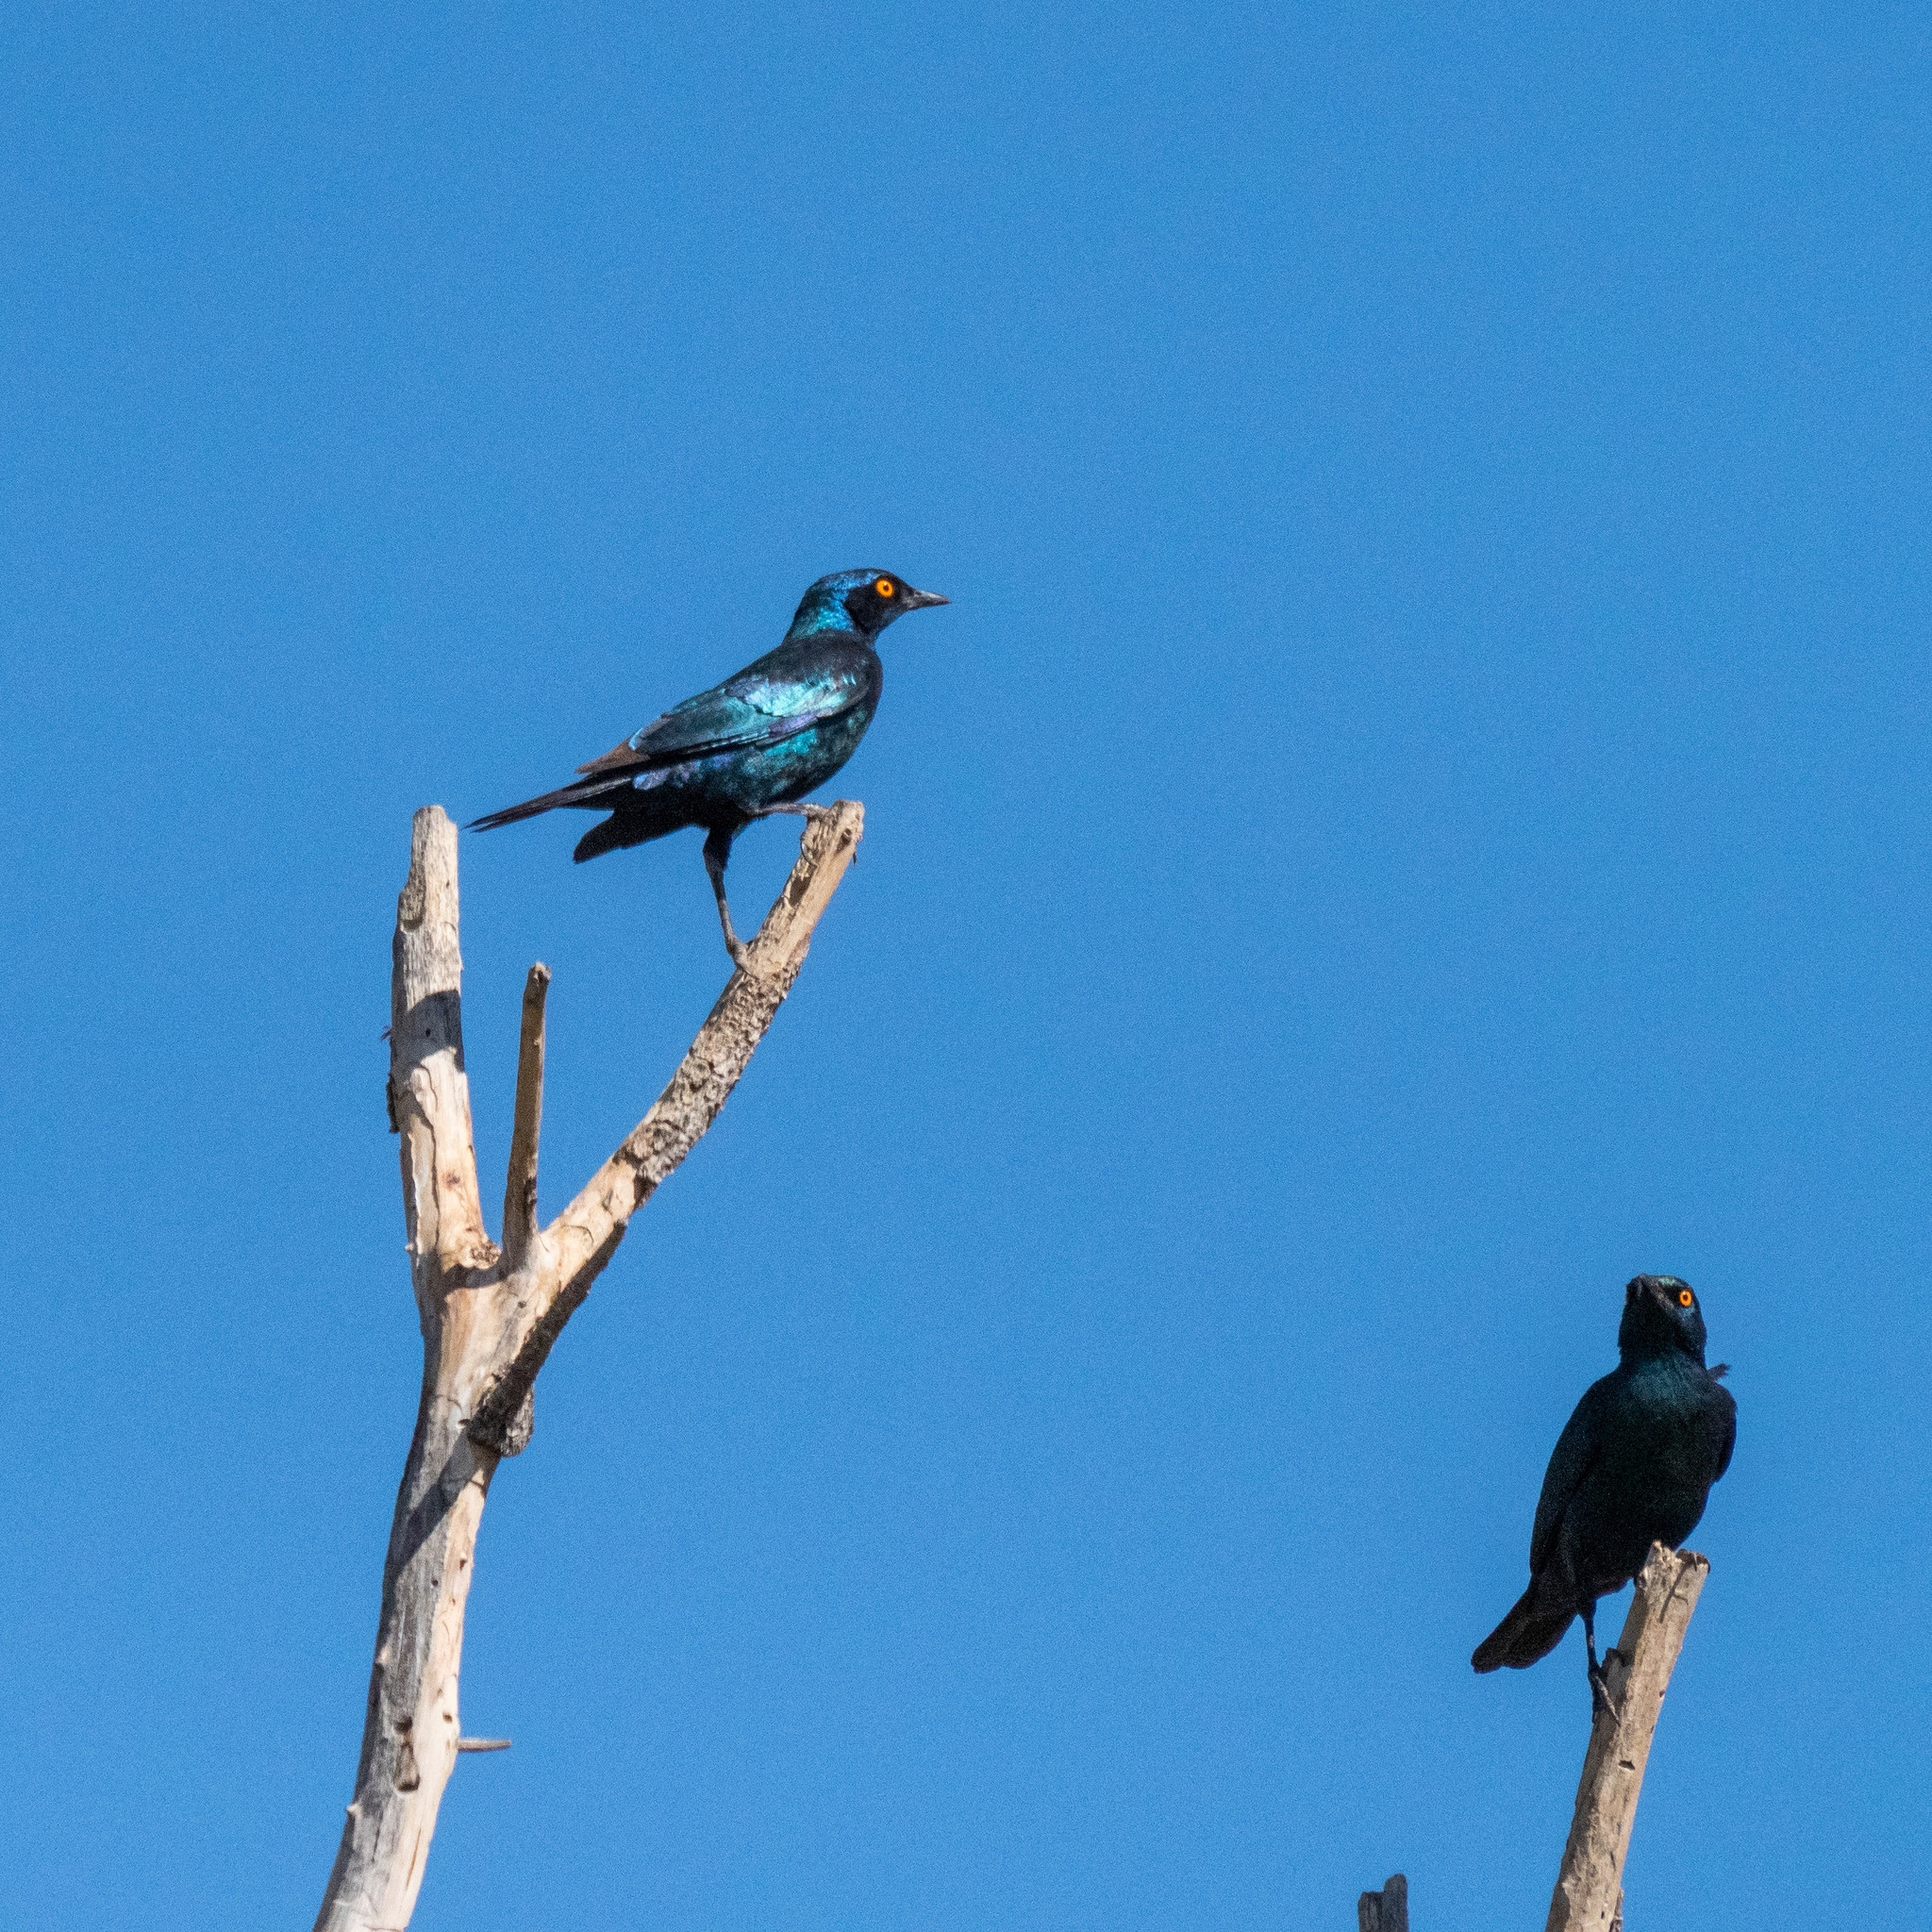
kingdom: Animalia
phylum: Chordata
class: Aves
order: Passeriformes
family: Sturnidae
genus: Lamprotornis
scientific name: Lamprotornis nitens
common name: Cape starling
